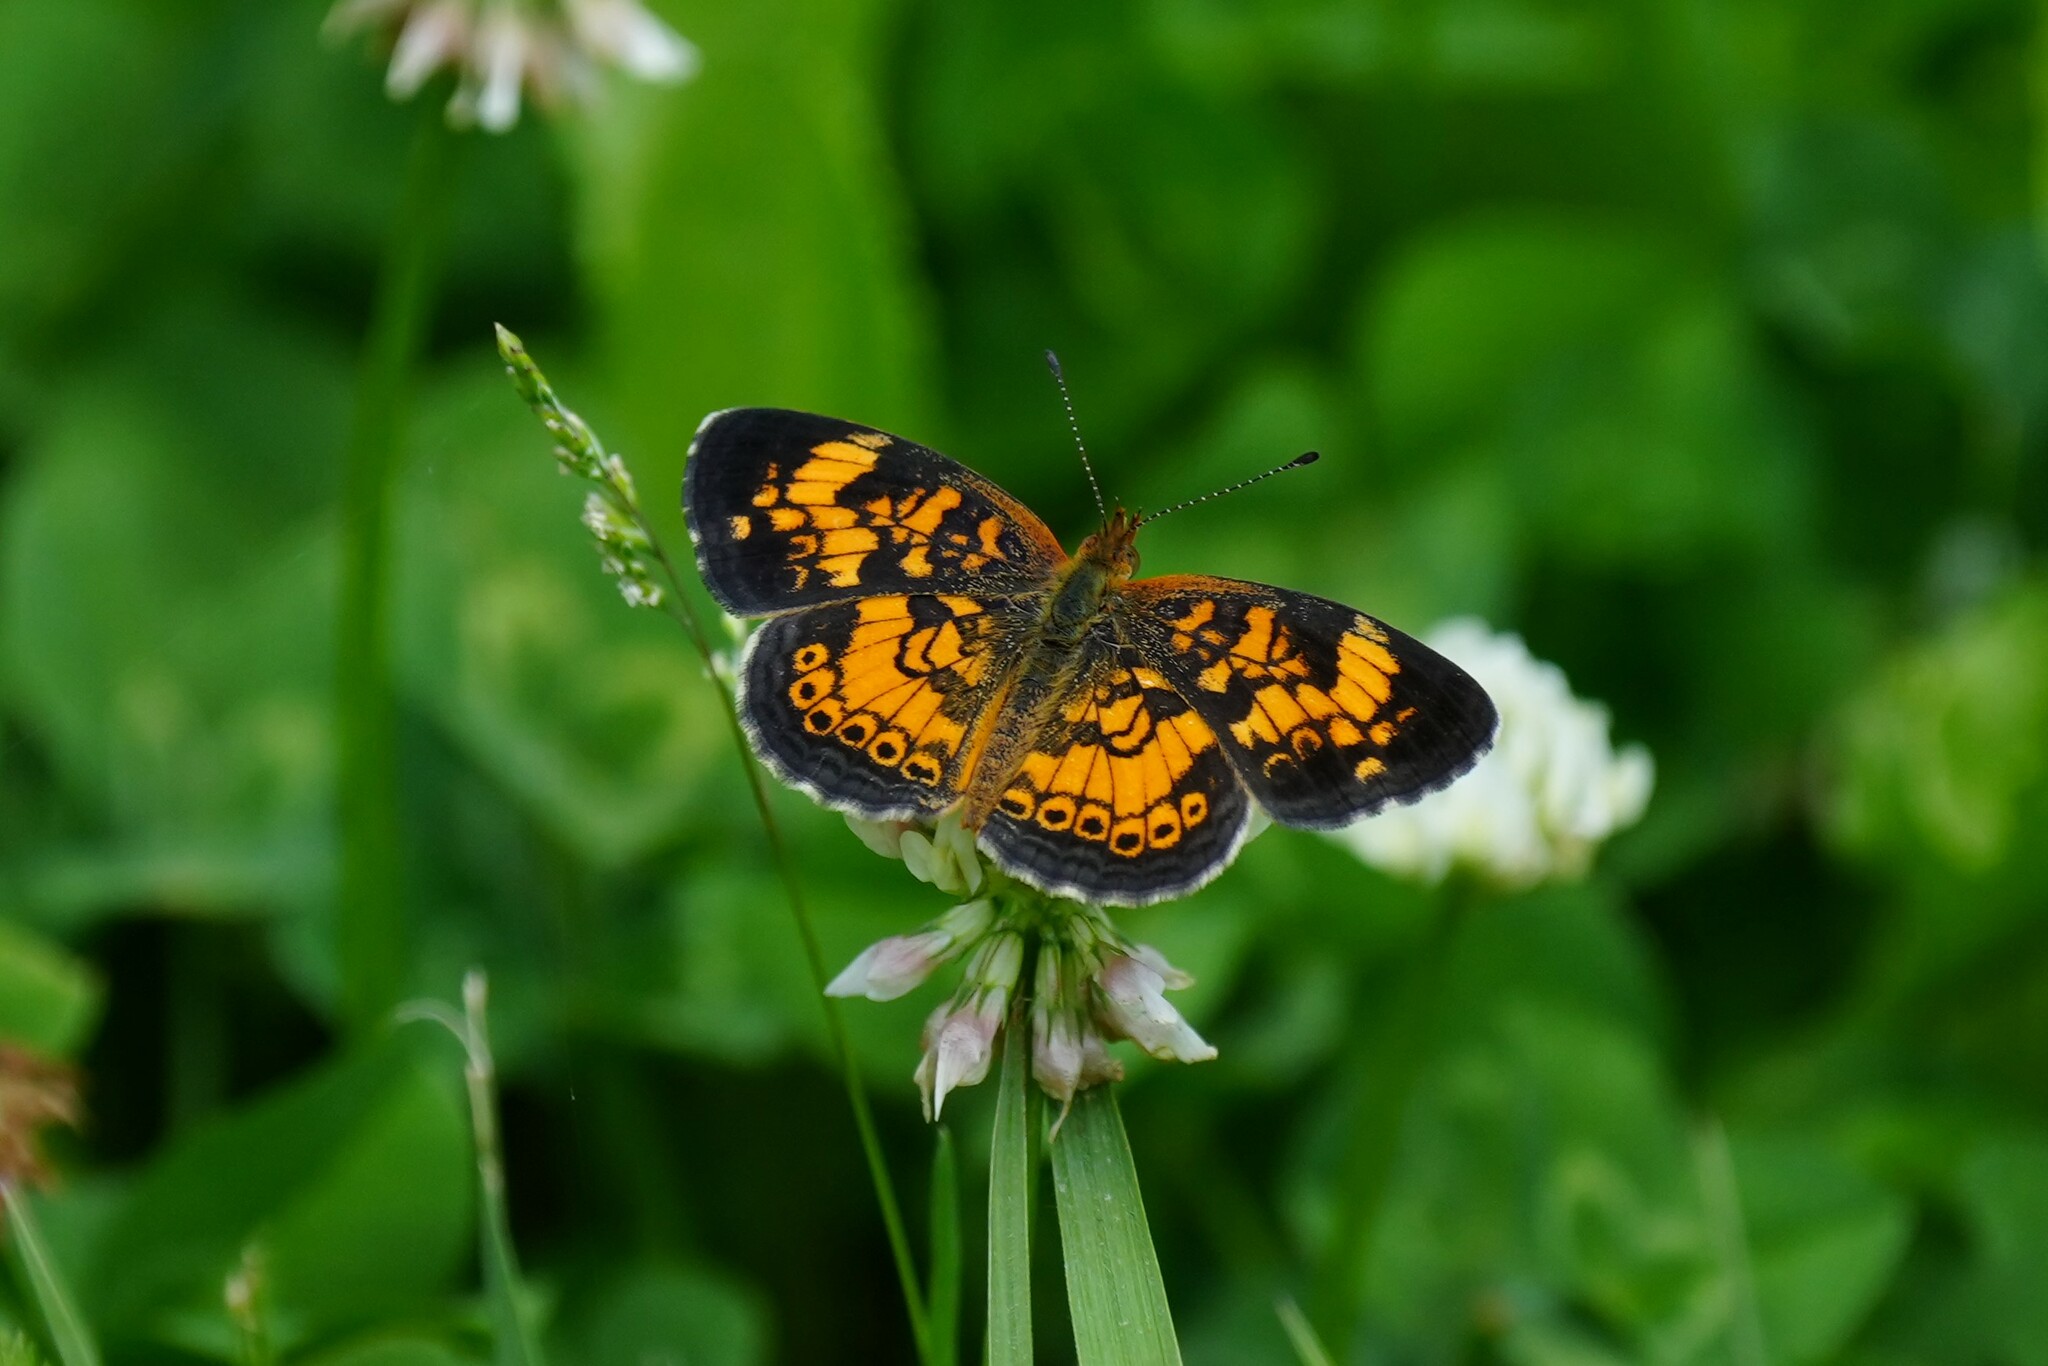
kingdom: Animalia
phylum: Arthropoda
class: Insecta
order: Lepidoptera
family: Nymphalidae
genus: Phyciodes
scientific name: Phyciodes tharos
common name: Pearl crescent
